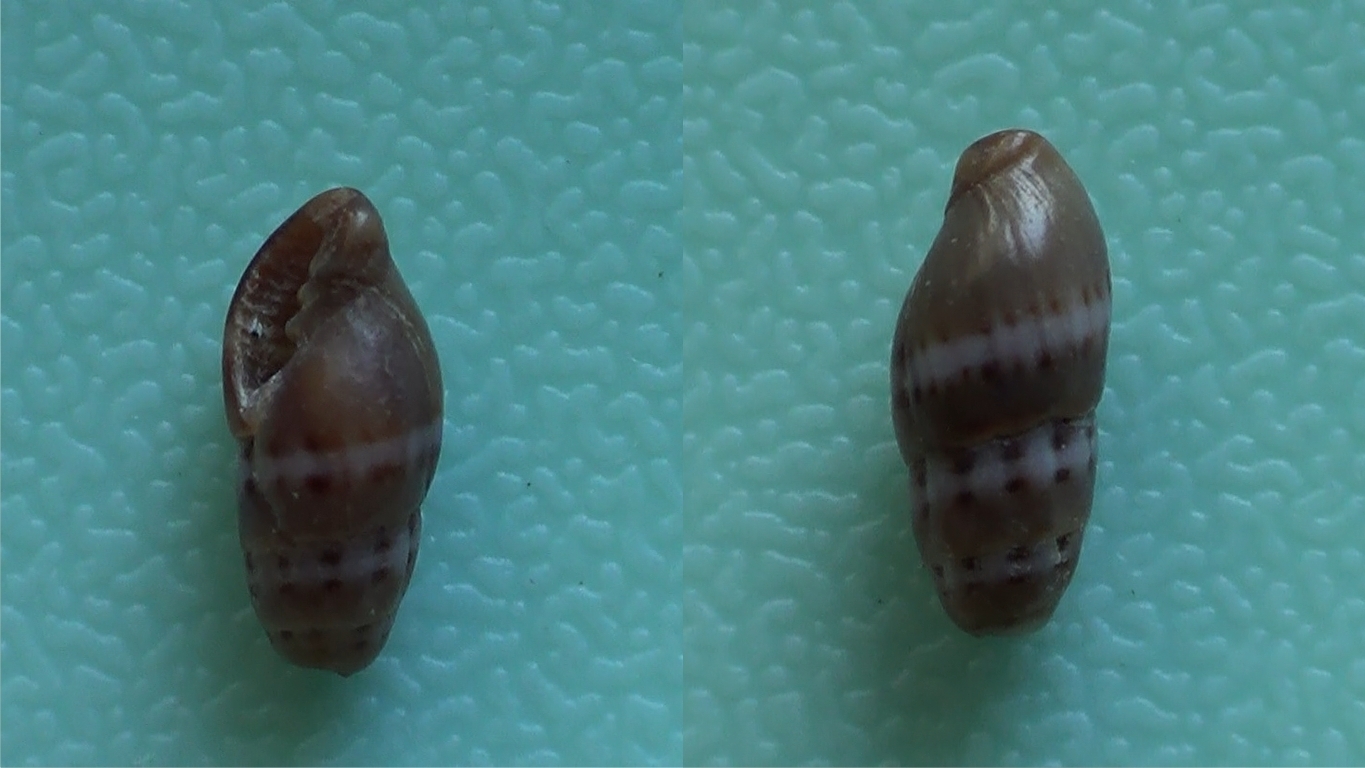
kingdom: Animalia
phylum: Mollusca
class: Gastropoda
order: Neogastropoda
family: Costellariidae
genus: Pusia
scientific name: Pusia tricolor
